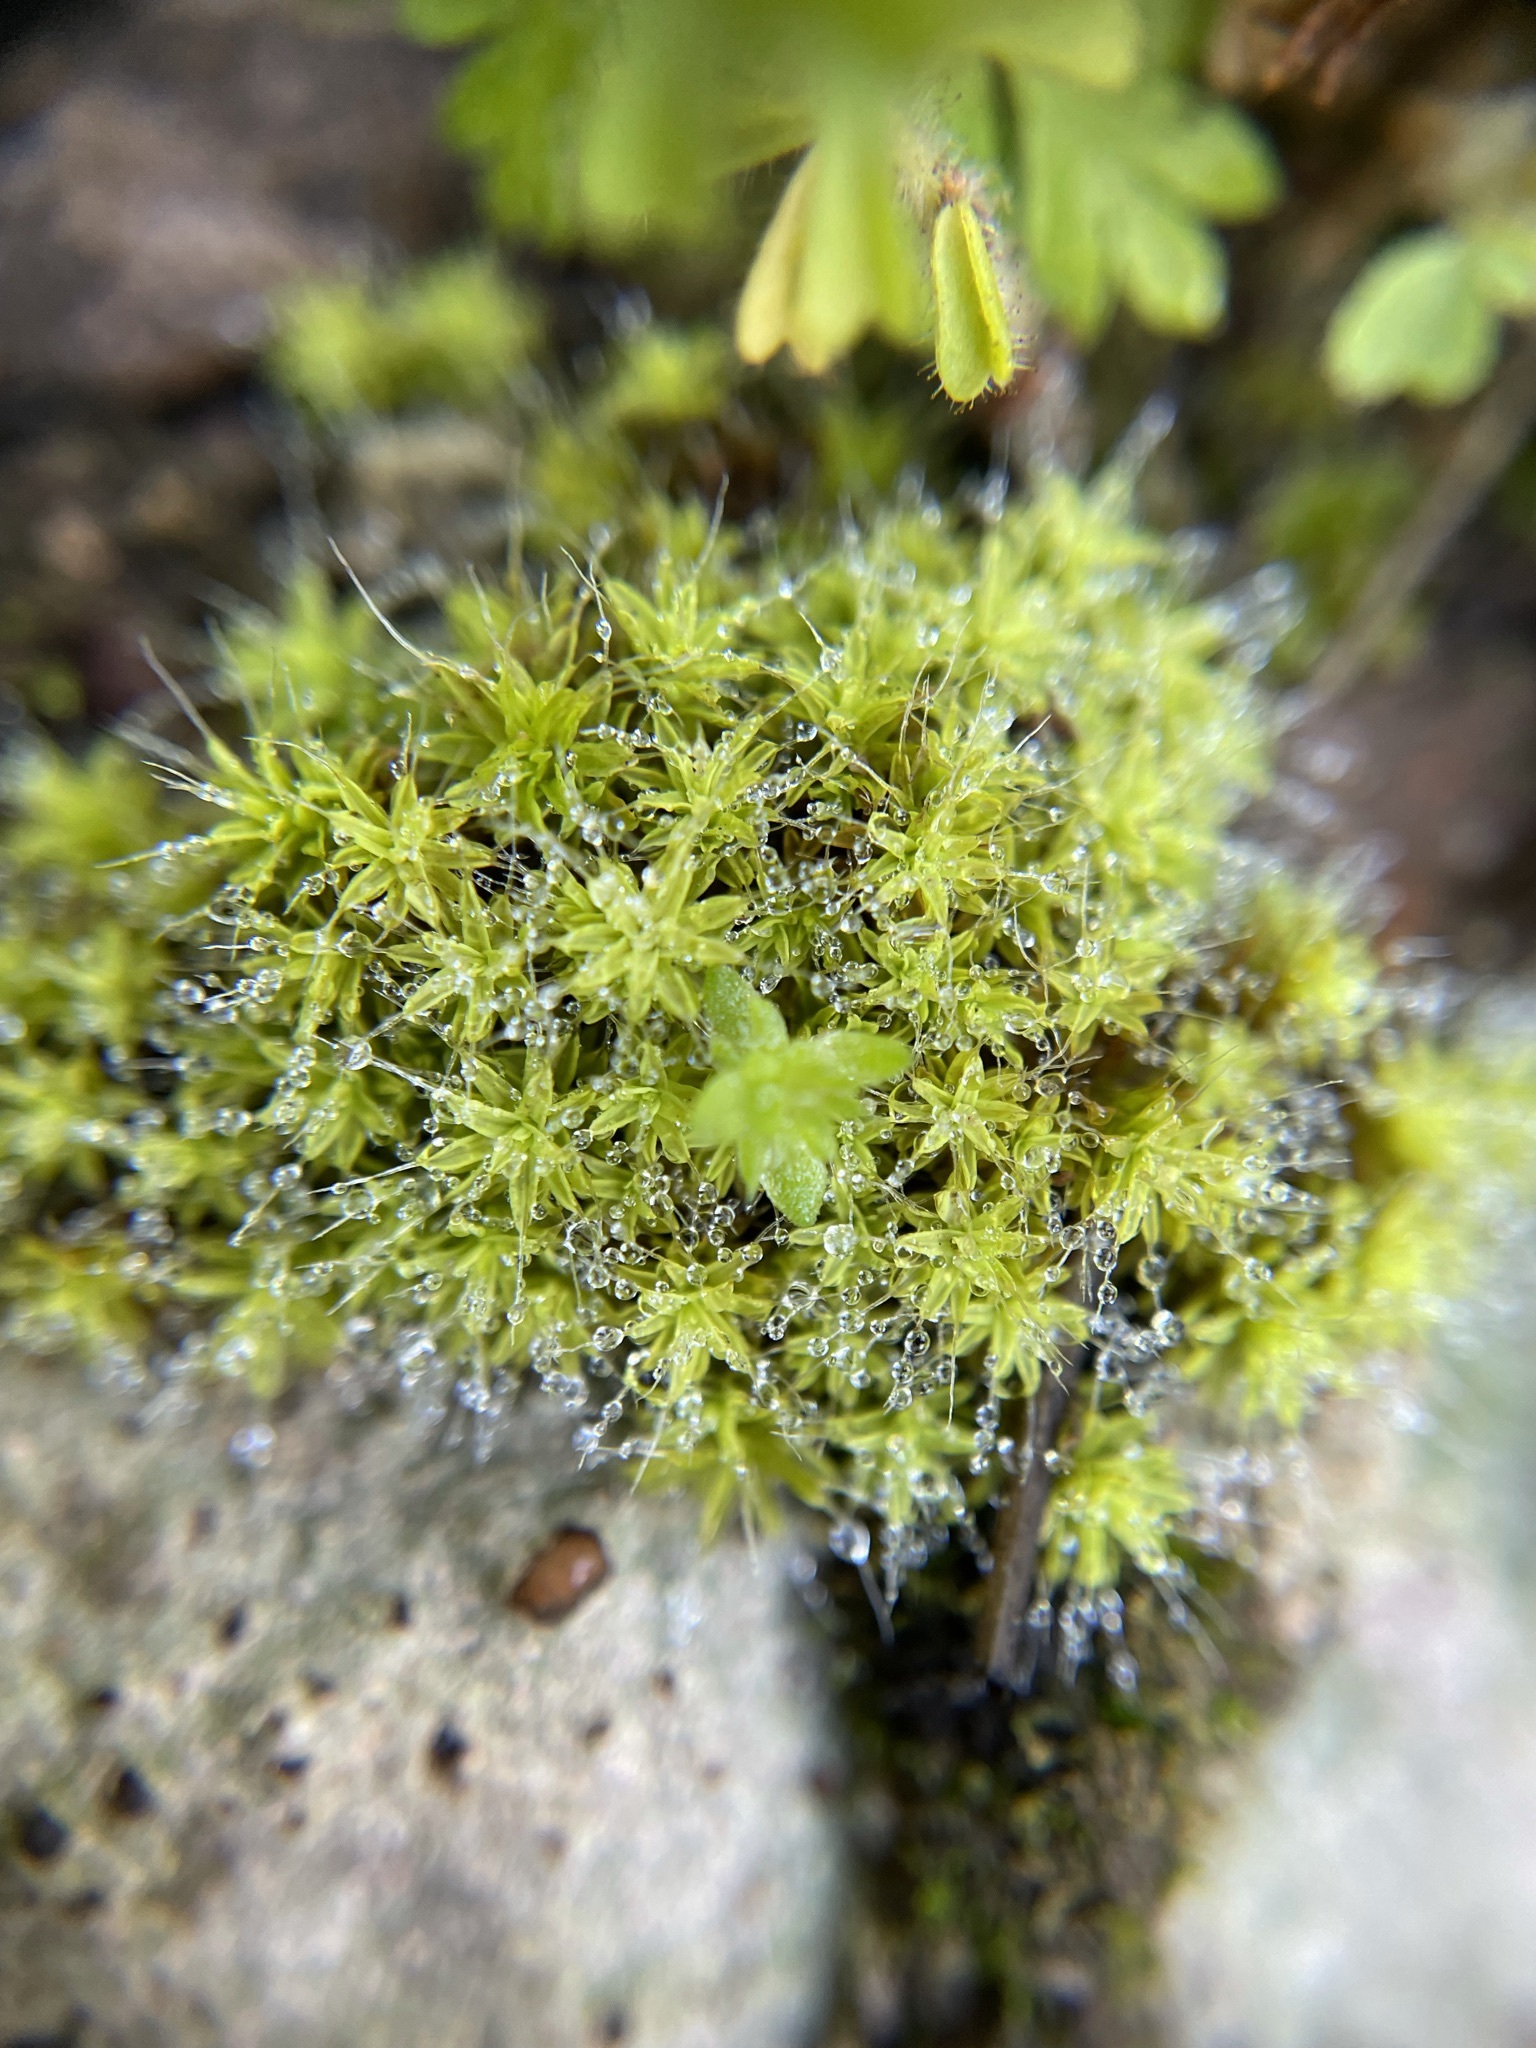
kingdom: Plantae
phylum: Bryophyta
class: Bryopsida
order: Pottiales
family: Pottiaceae
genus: Pseudocrossidium
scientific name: Pseudocrossidium crinitum
